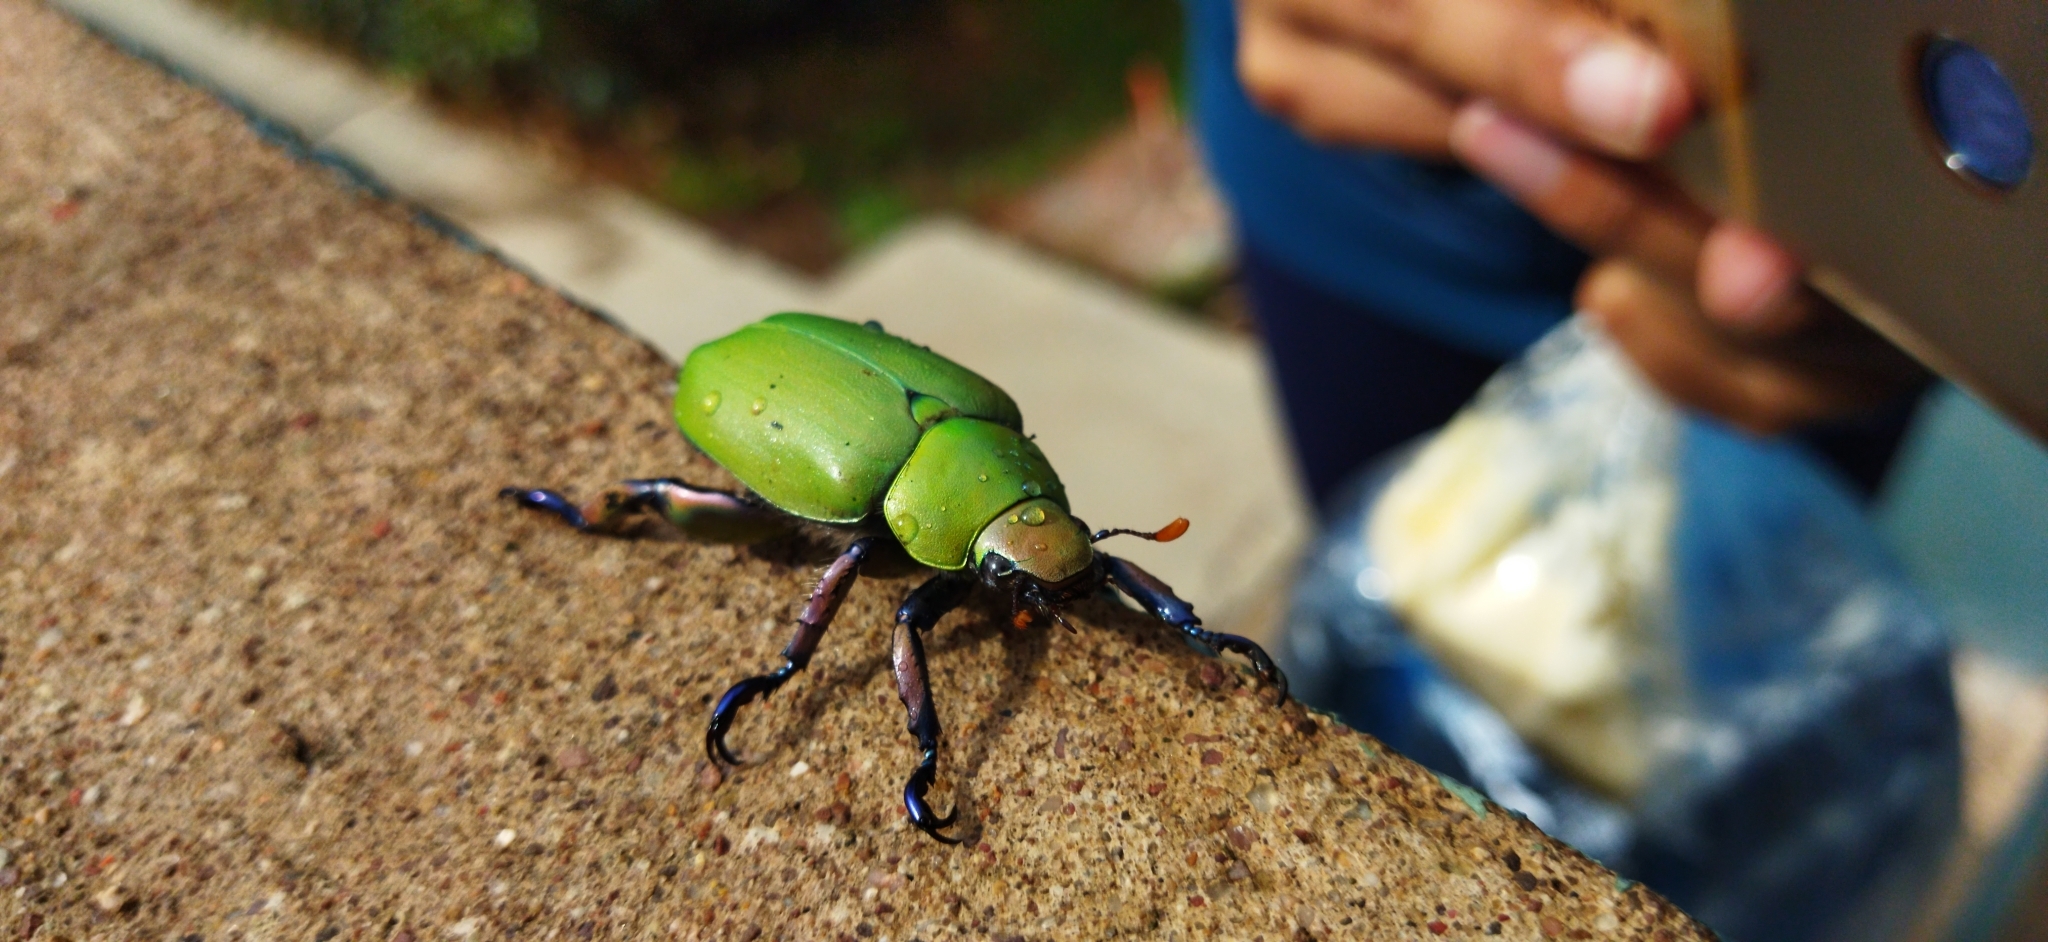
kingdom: Animalia
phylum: Arthropoda
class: Insecta
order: Coleoptera
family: Scarabaeidae
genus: Chrysina
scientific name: Chrysina erubescens
